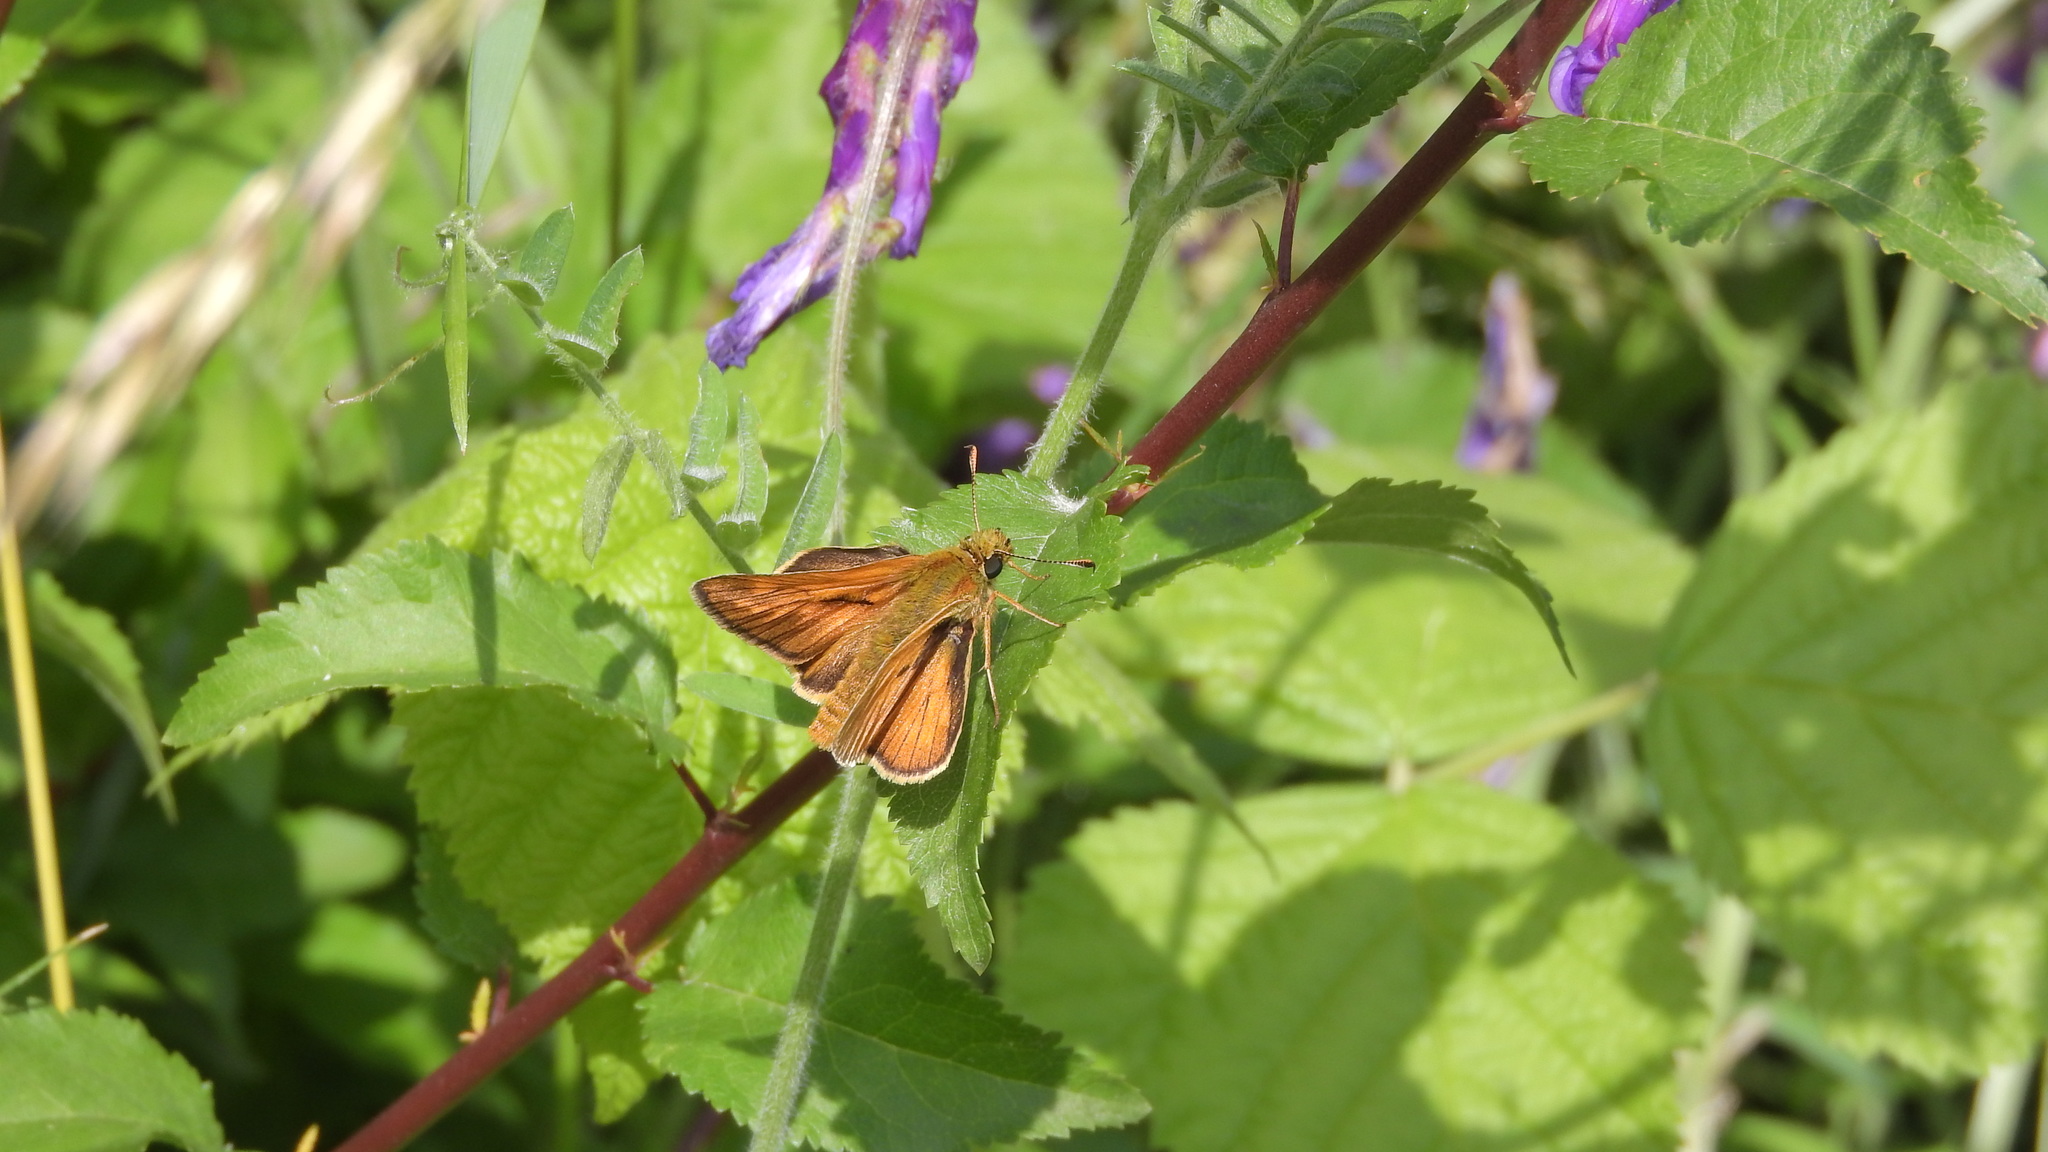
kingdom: Animalia
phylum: Arthropoda
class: Insecta
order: Lepidoptera
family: Hesperiidae
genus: Ochlodes
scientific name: Ochlodes venata
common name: Large skipper
